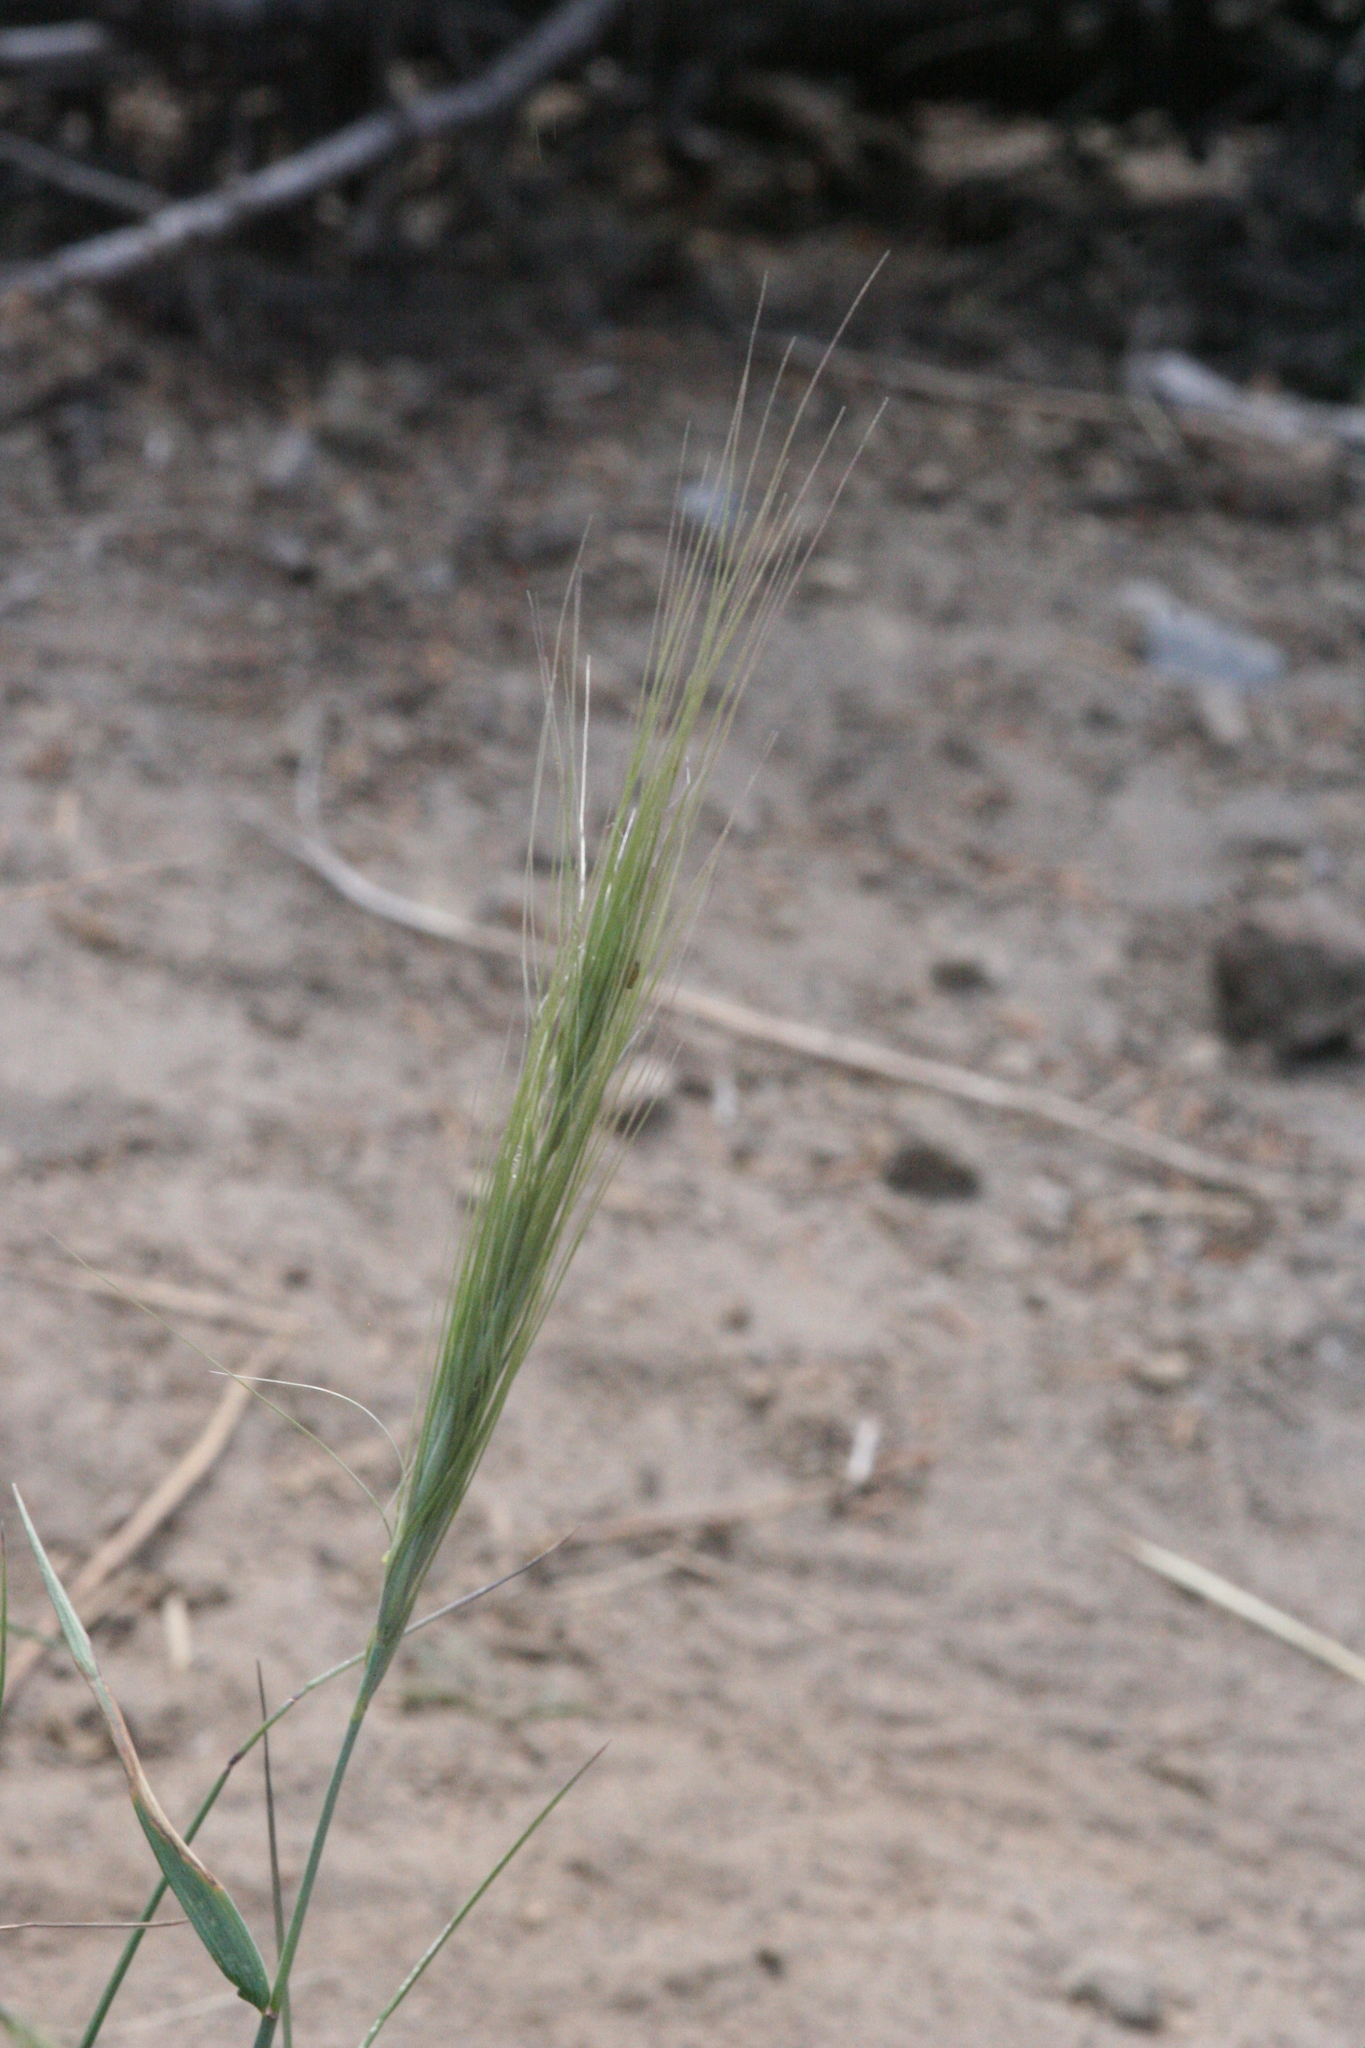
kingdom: Plantae
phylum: Tracheophyta
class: Liliopsida
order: Poales
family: Poaceae
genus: Elymus
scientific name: Elymus elymoides
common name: Bottlebrush squirreltail
